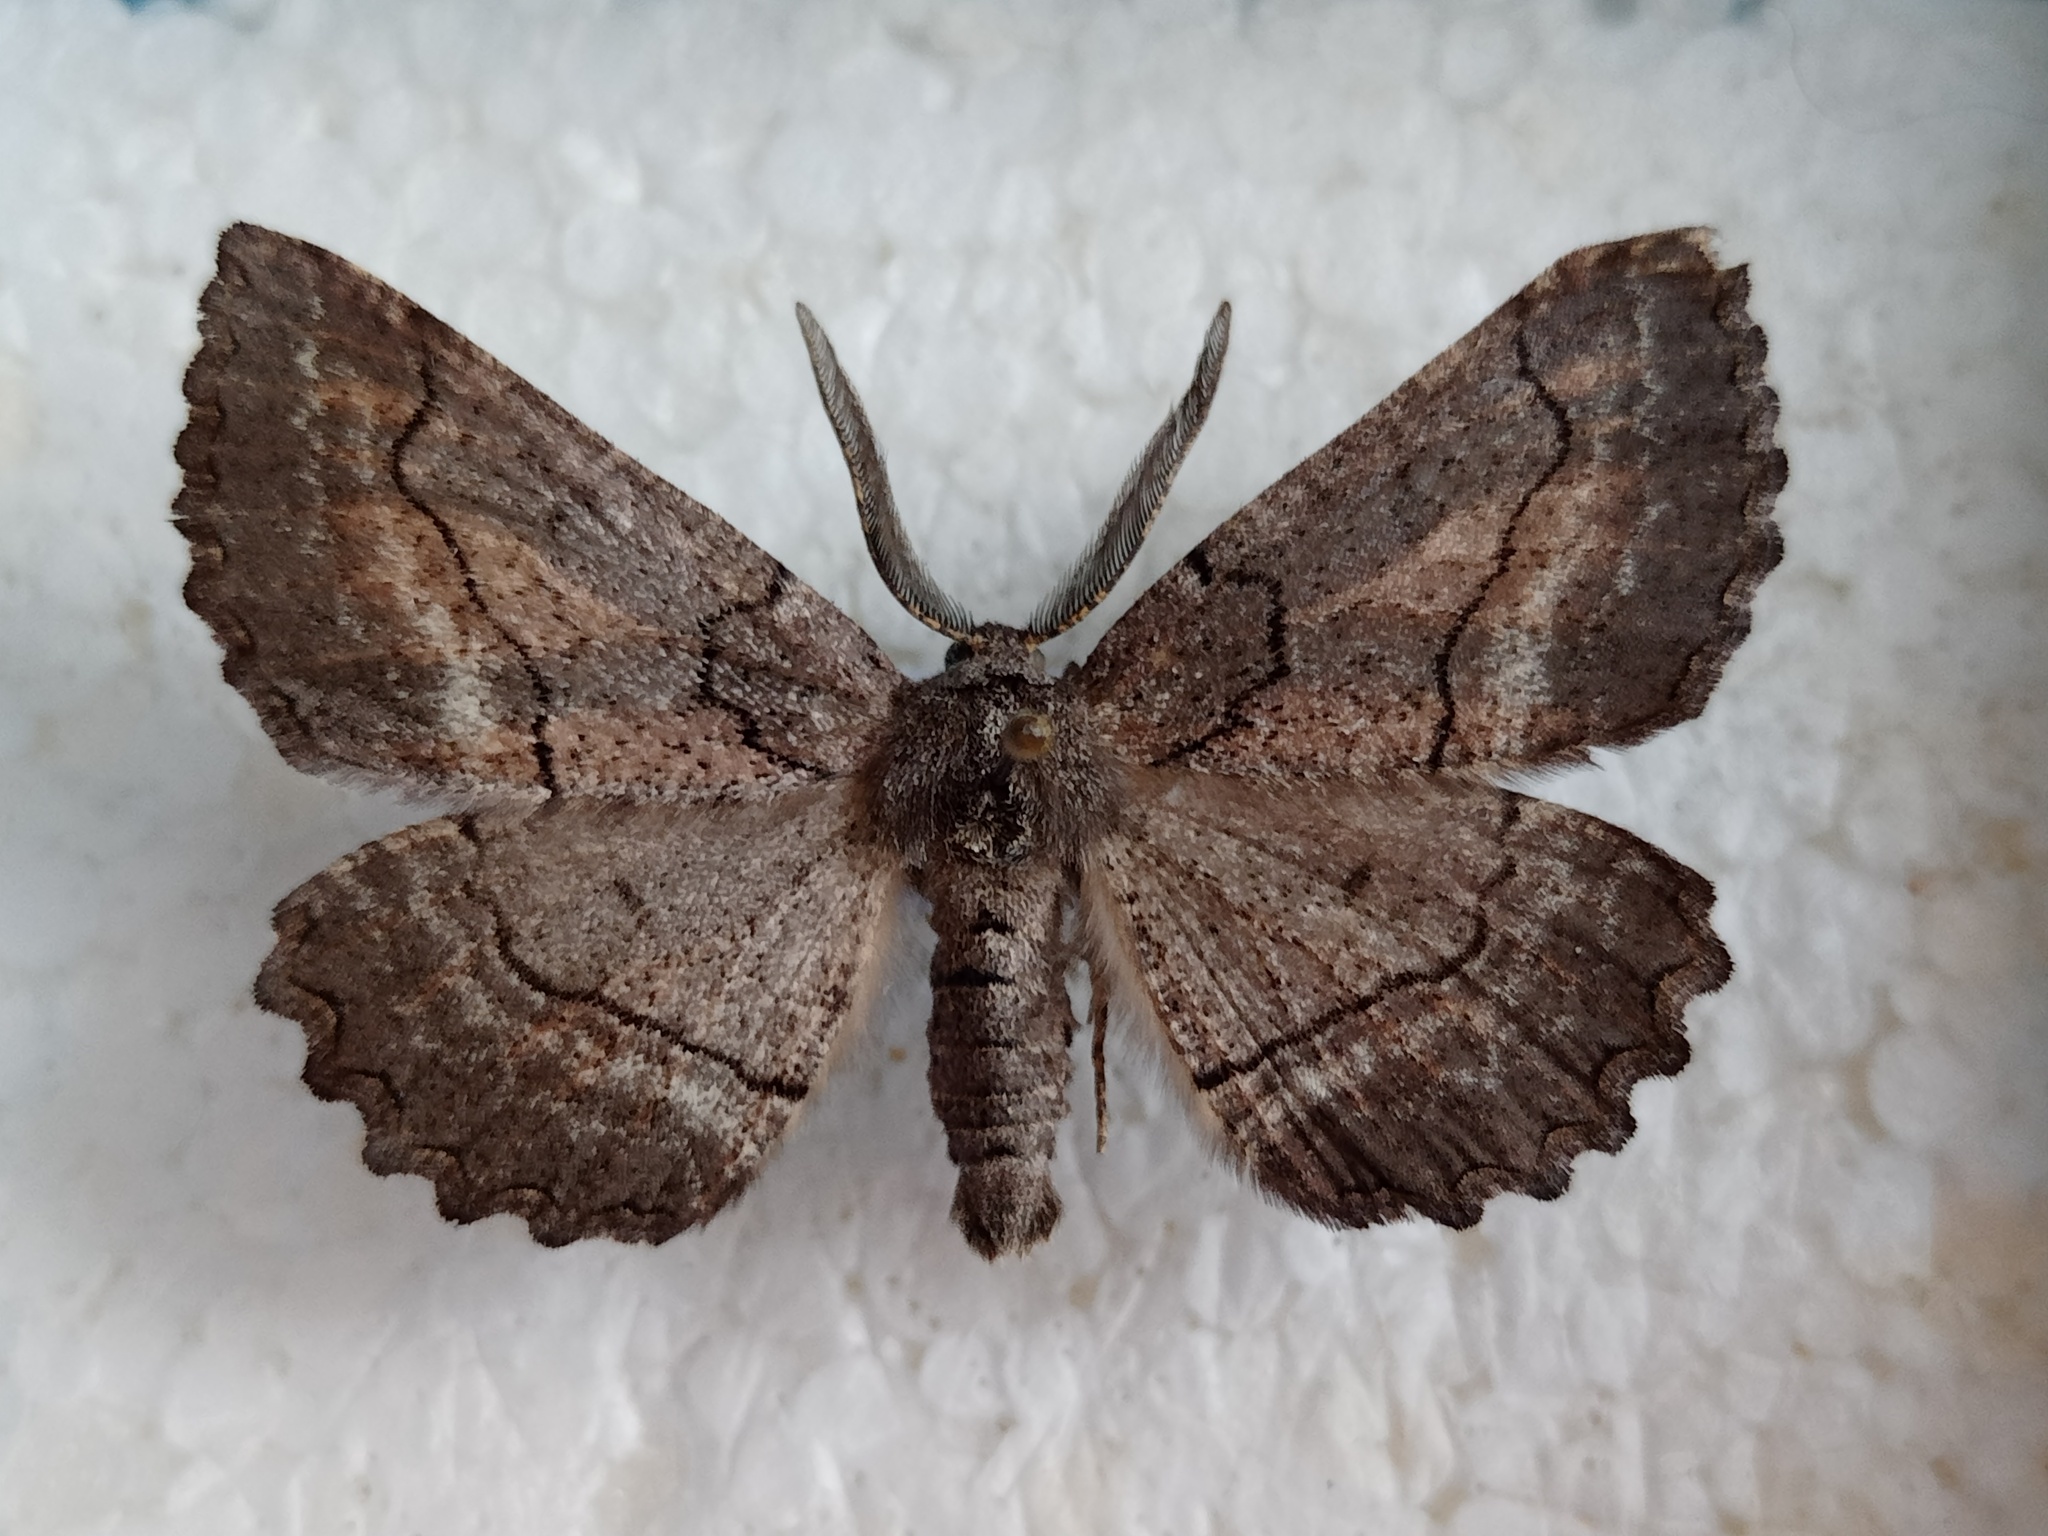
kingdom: Animalia
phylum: Arthropoda
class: Insecta
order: Lepidoptera
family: Geometridae
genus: Nychiodes
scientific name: Nychiodes obscuraria
